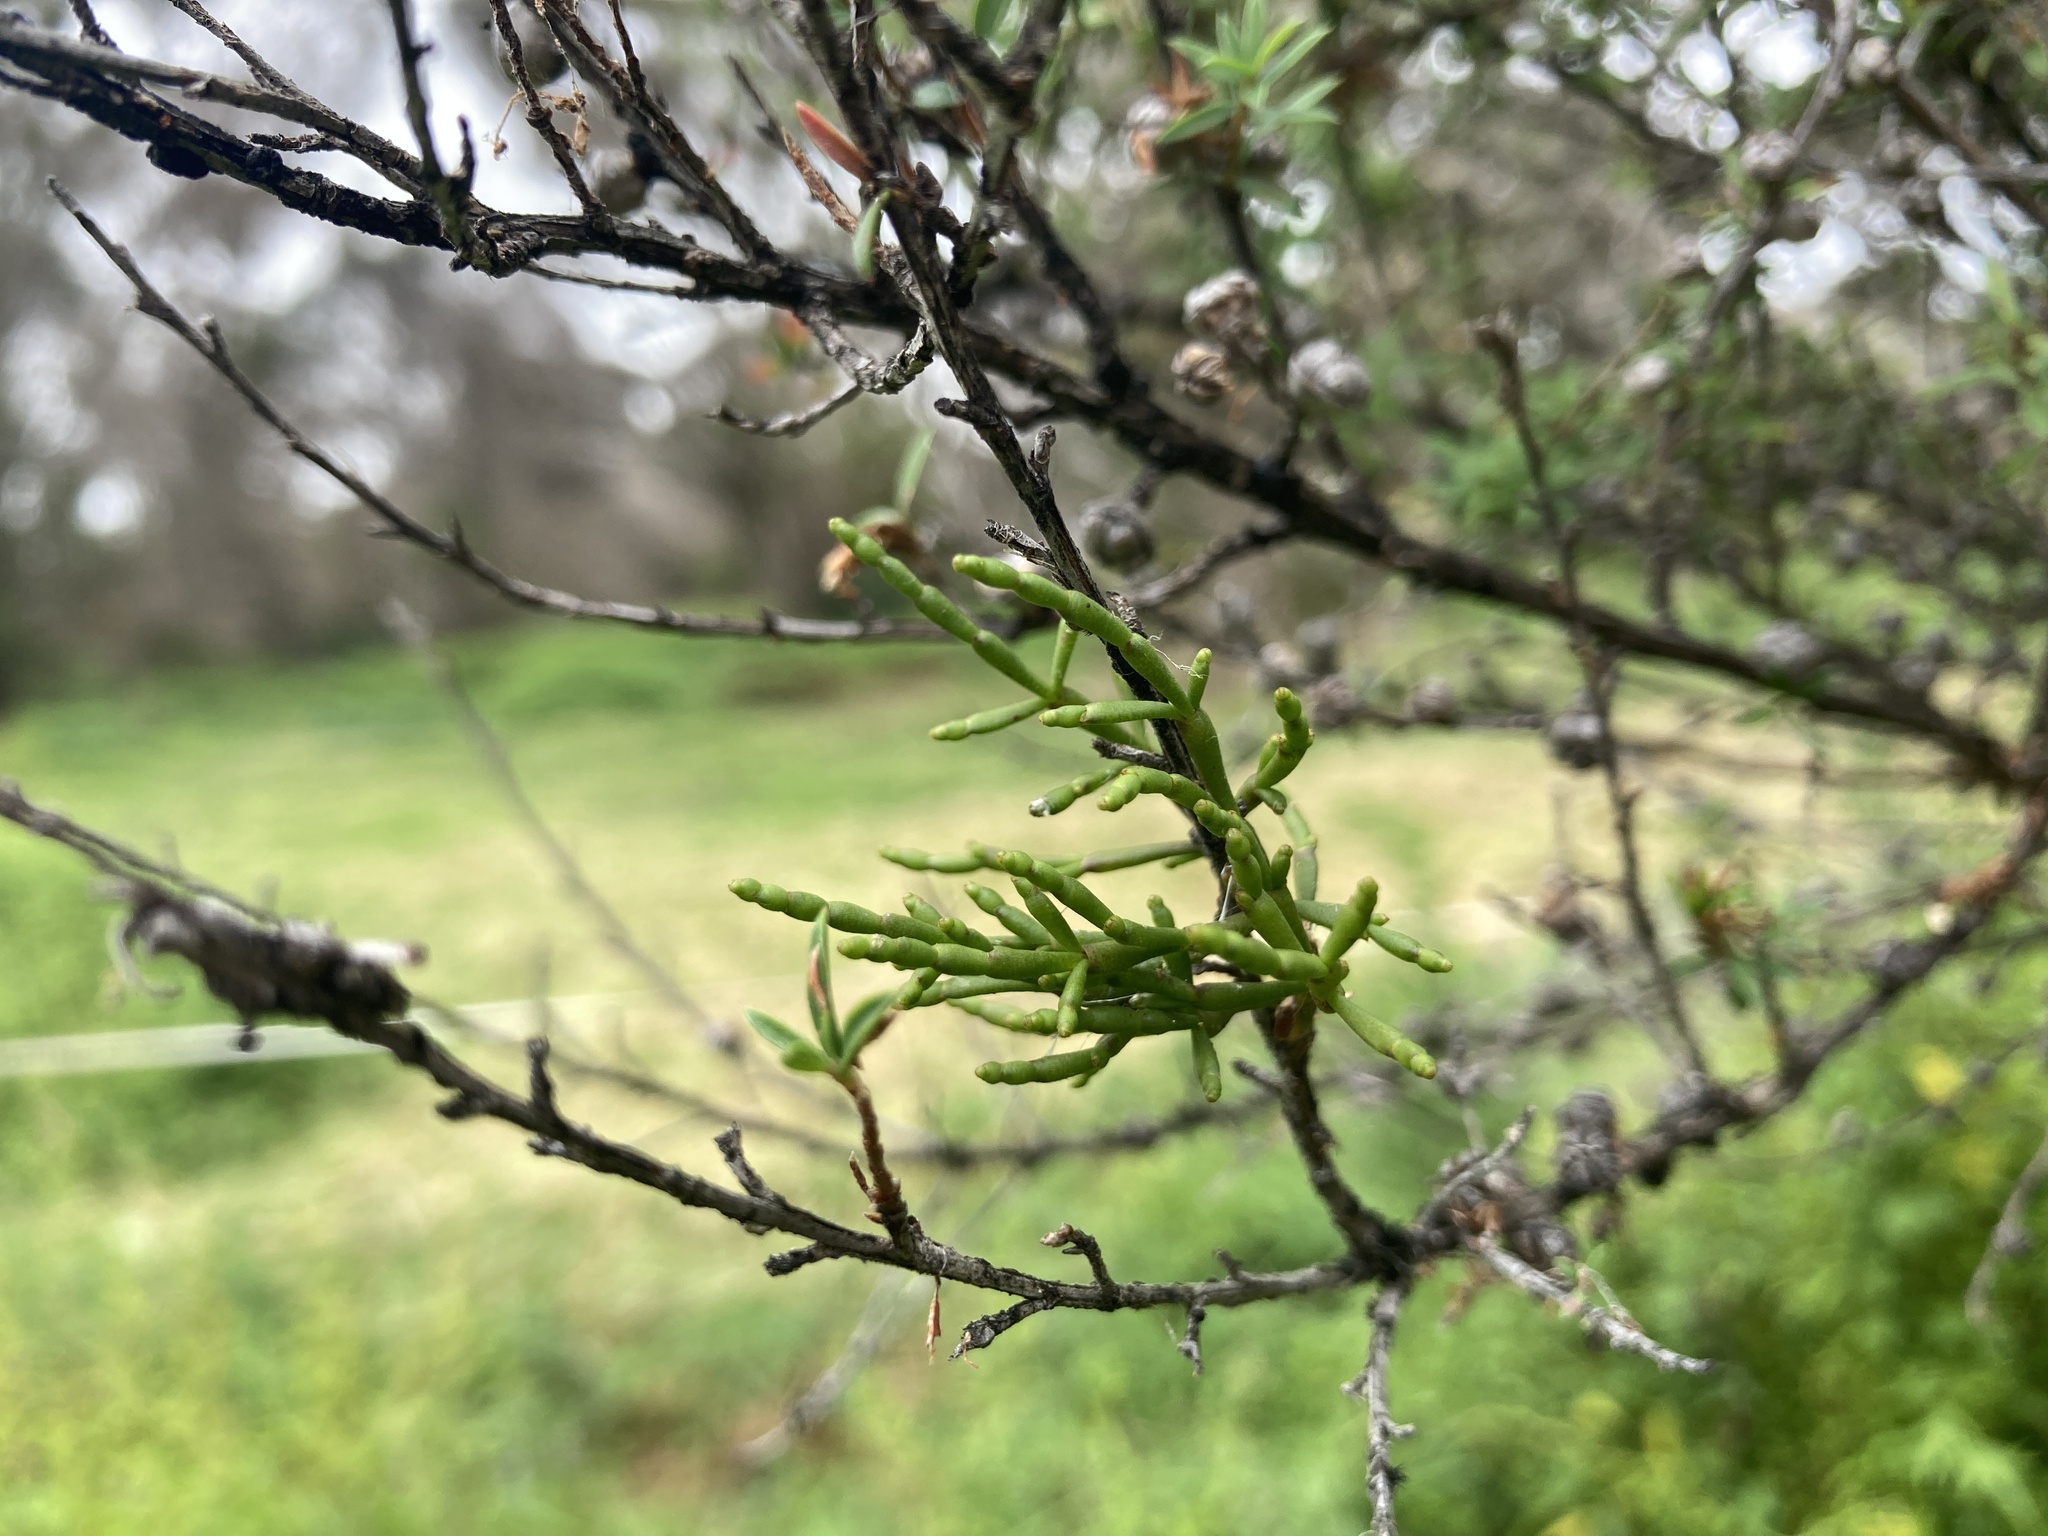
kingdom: Plantae
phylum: Tracheophyta
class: Magnoliopsida
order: Santalales
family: Viscaceae
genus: Korthalsella
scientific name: Korthalsella salicornioides
